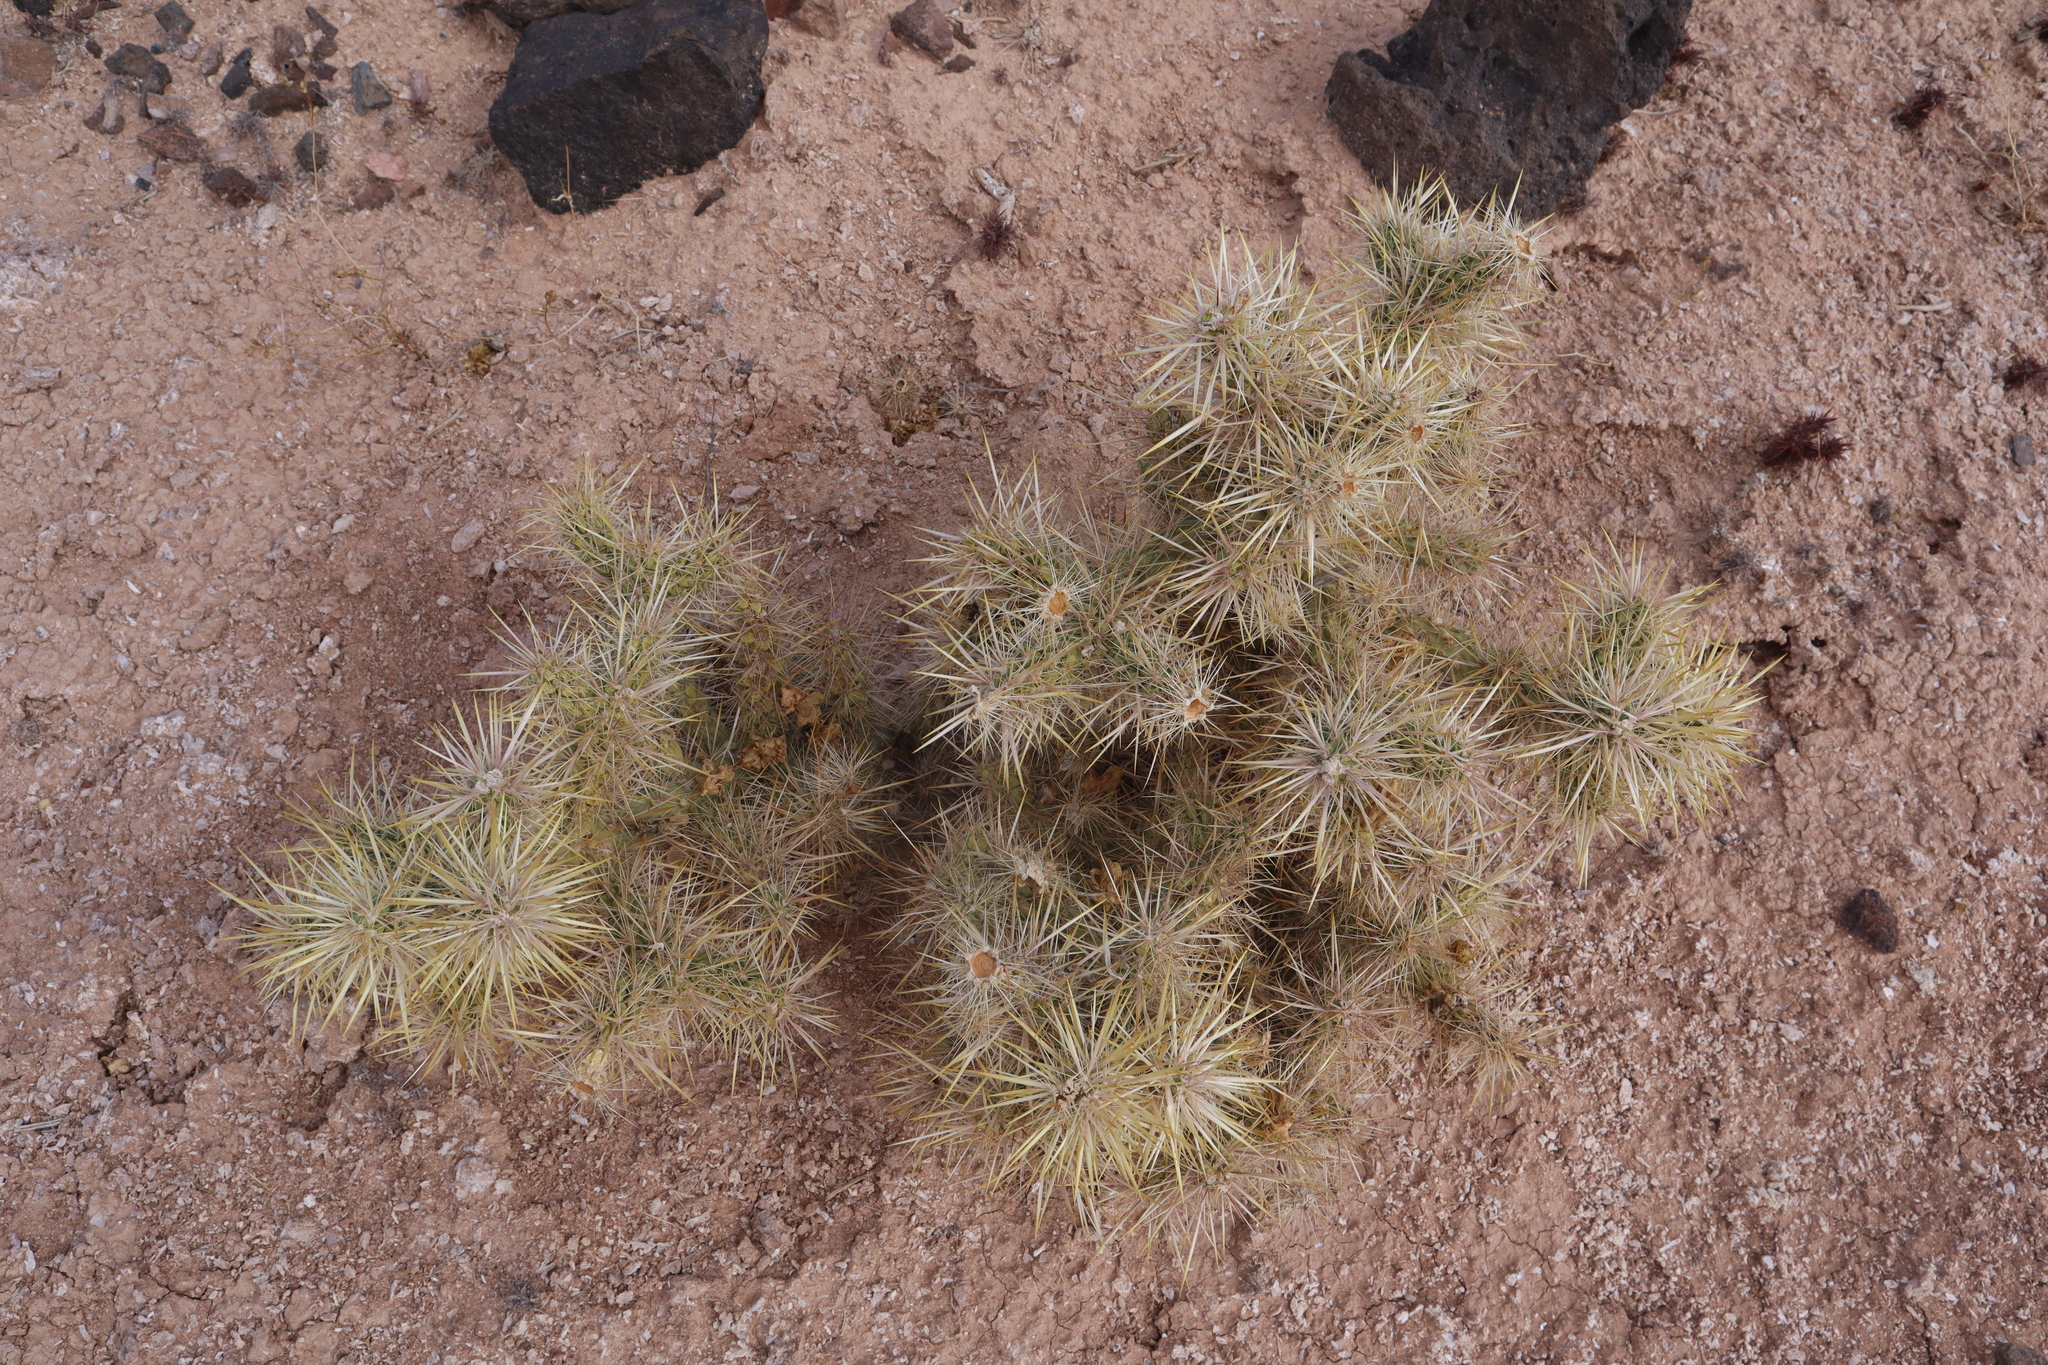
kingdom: Plantae
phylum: Tracheophyta
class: Magnoliopsida
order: Caryophyllales
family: Cactaceae
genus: Cylindropuntia
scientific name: Cylindropuntia echinocarpa
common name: Ground cholla
